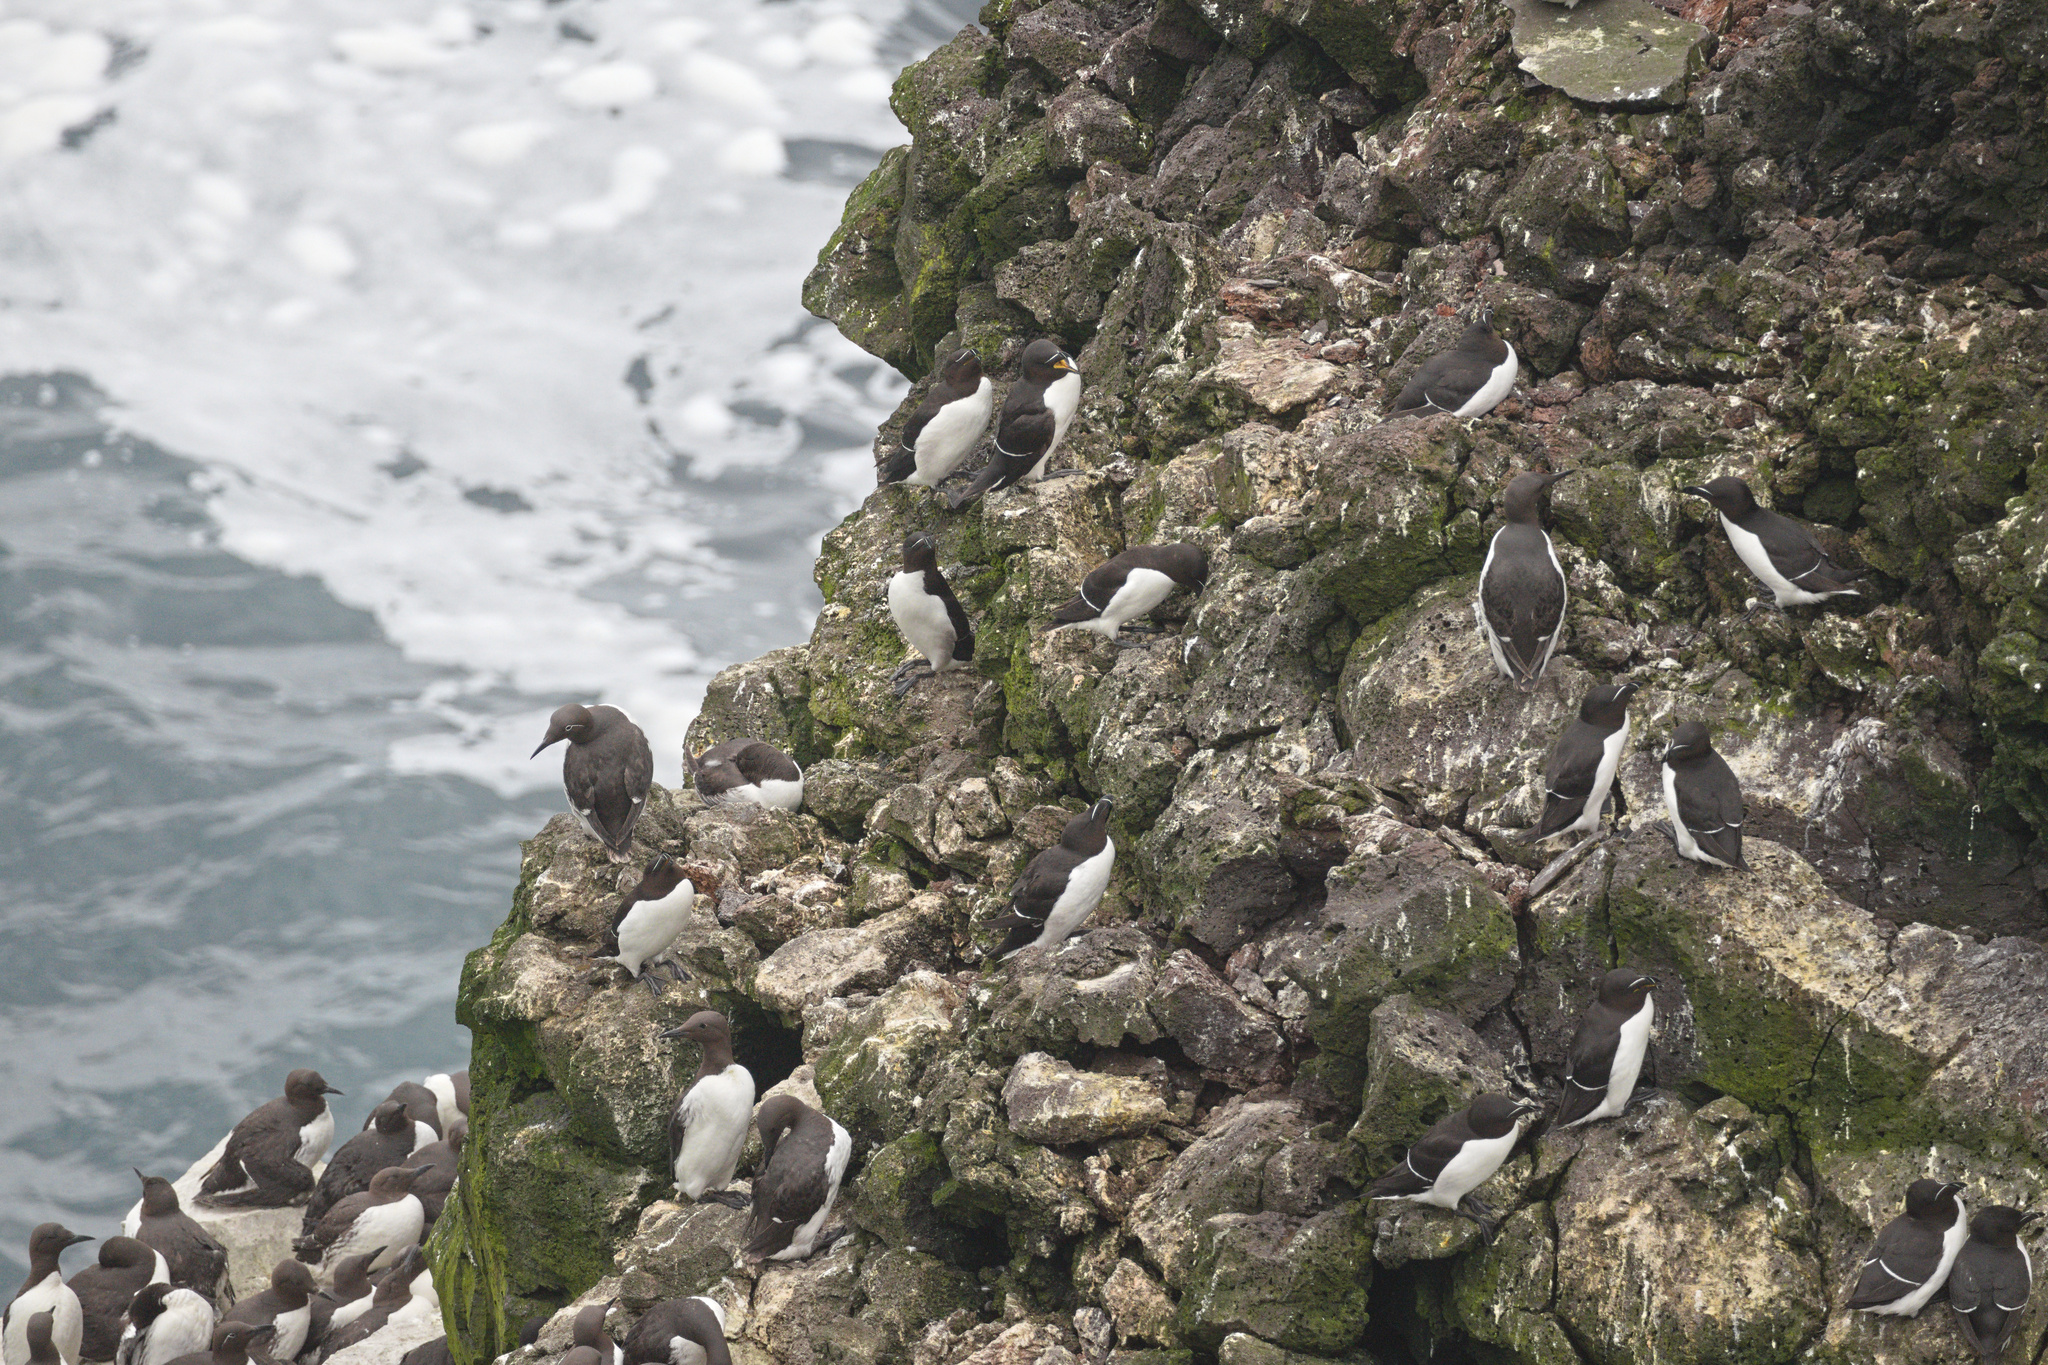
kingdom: Animalia
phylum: Chordata
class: Aves
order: Charadriiformes
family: Alcidae
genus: Uria
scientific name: Uria aalge
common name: Common murre
